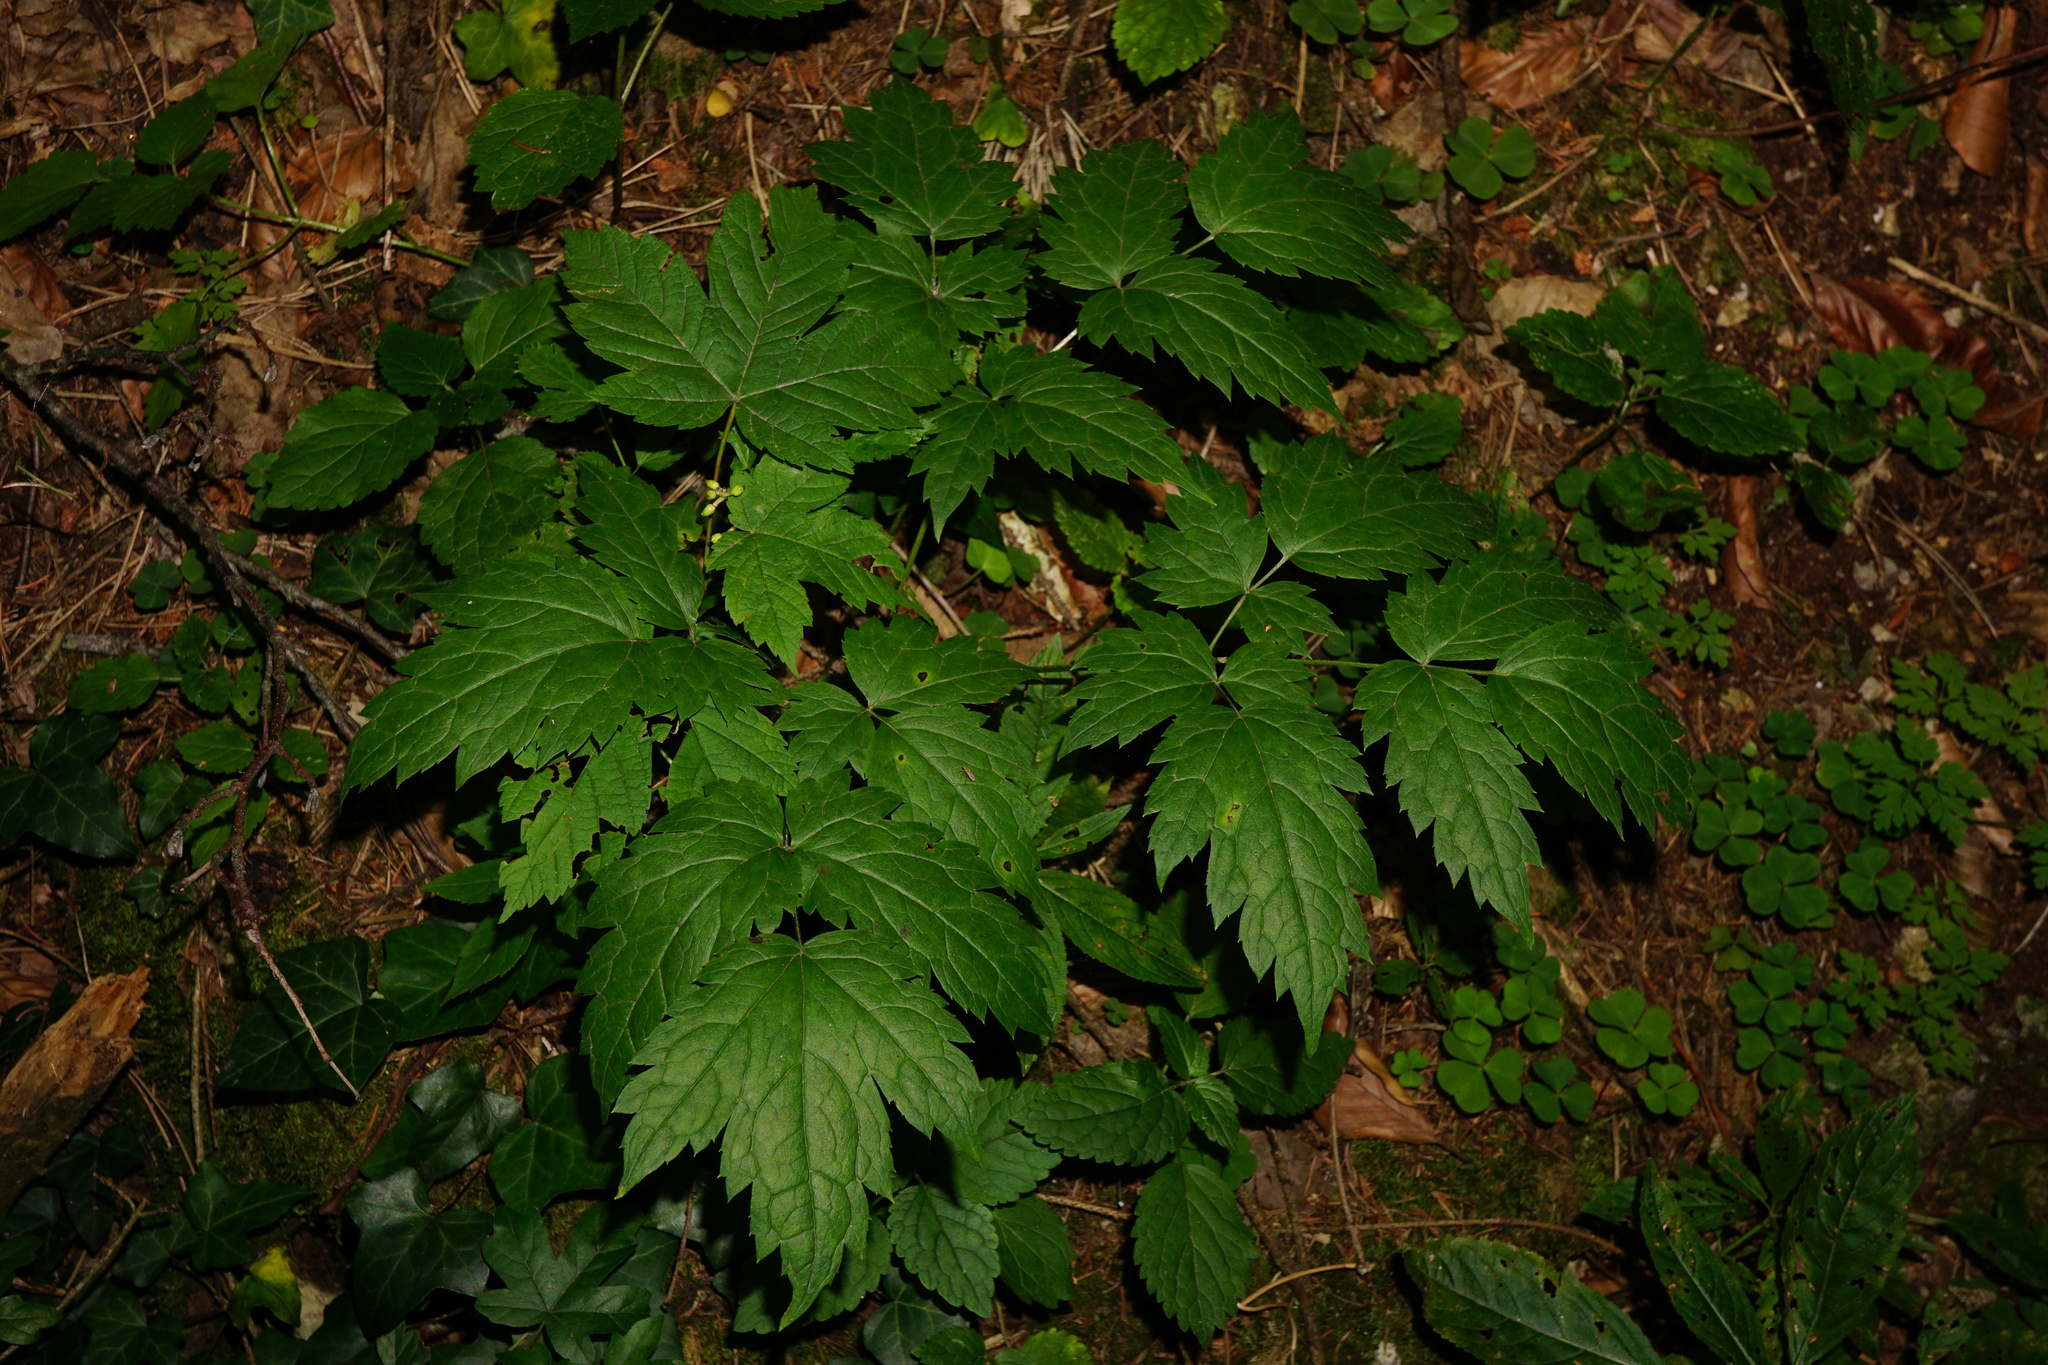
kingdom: Plantae
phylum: Tracheophyta
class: Magnoliopsida
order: Ranunculales
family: Ranunculaceae
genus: Actaea
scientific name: Actaea spicata
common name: Baneberry
